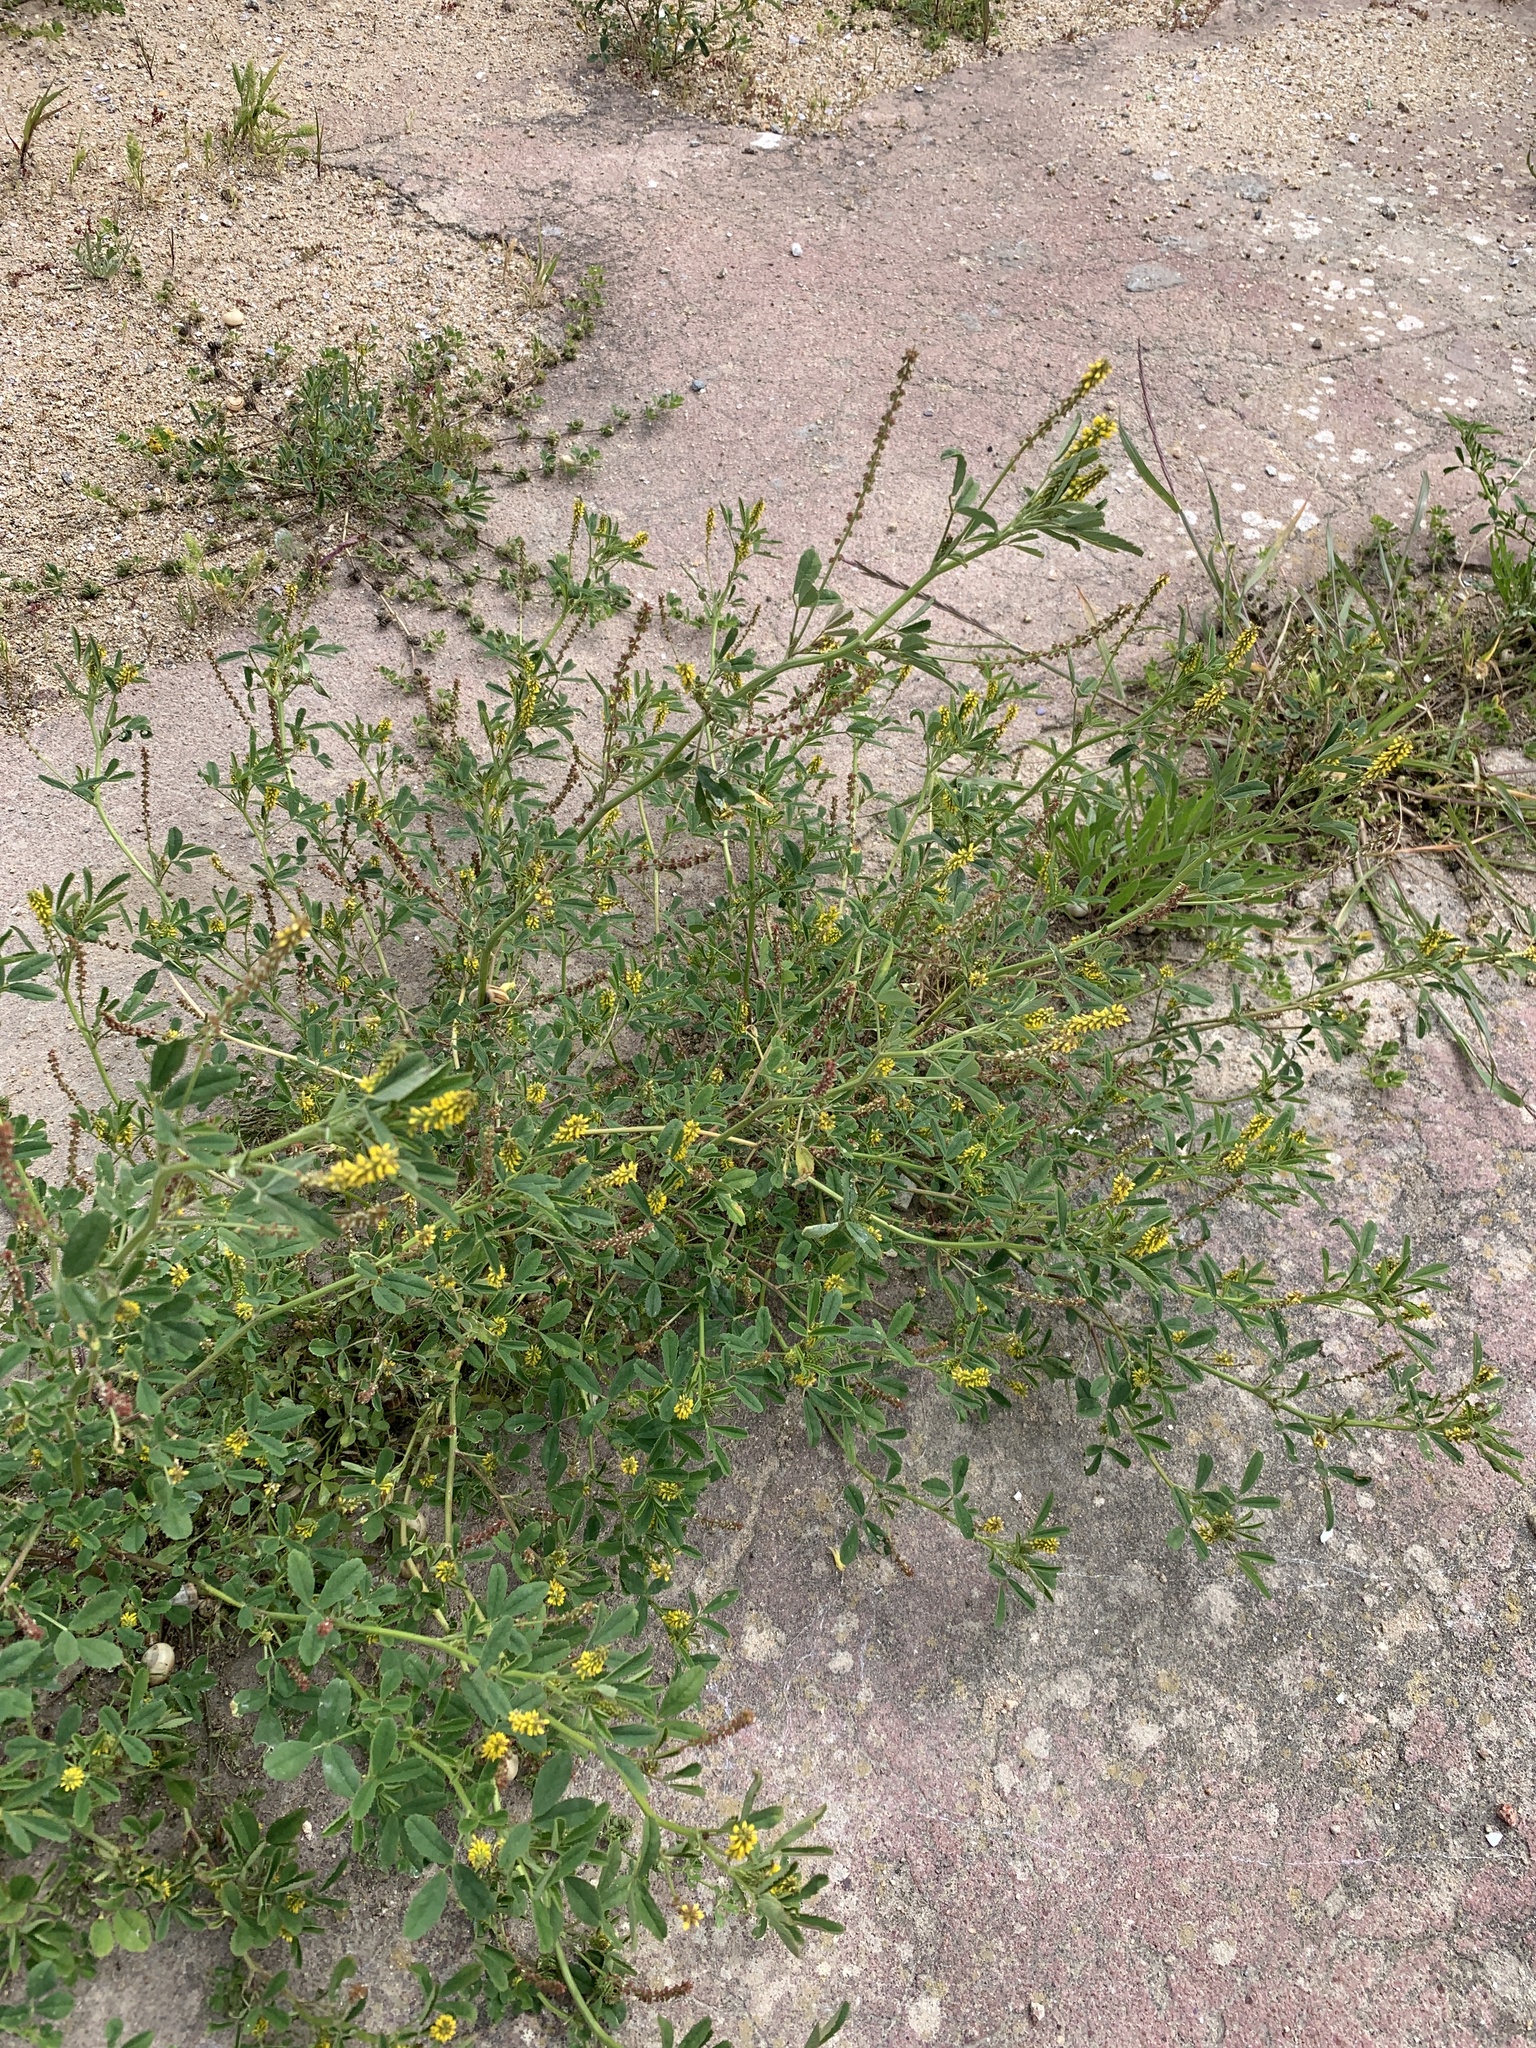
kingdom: Plantae
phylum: Tracheophyta
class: Magnoliopsida
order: Fabales
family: Fabaceae
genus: Melilotus
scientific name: Melilotus indicus
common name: Small melilot
